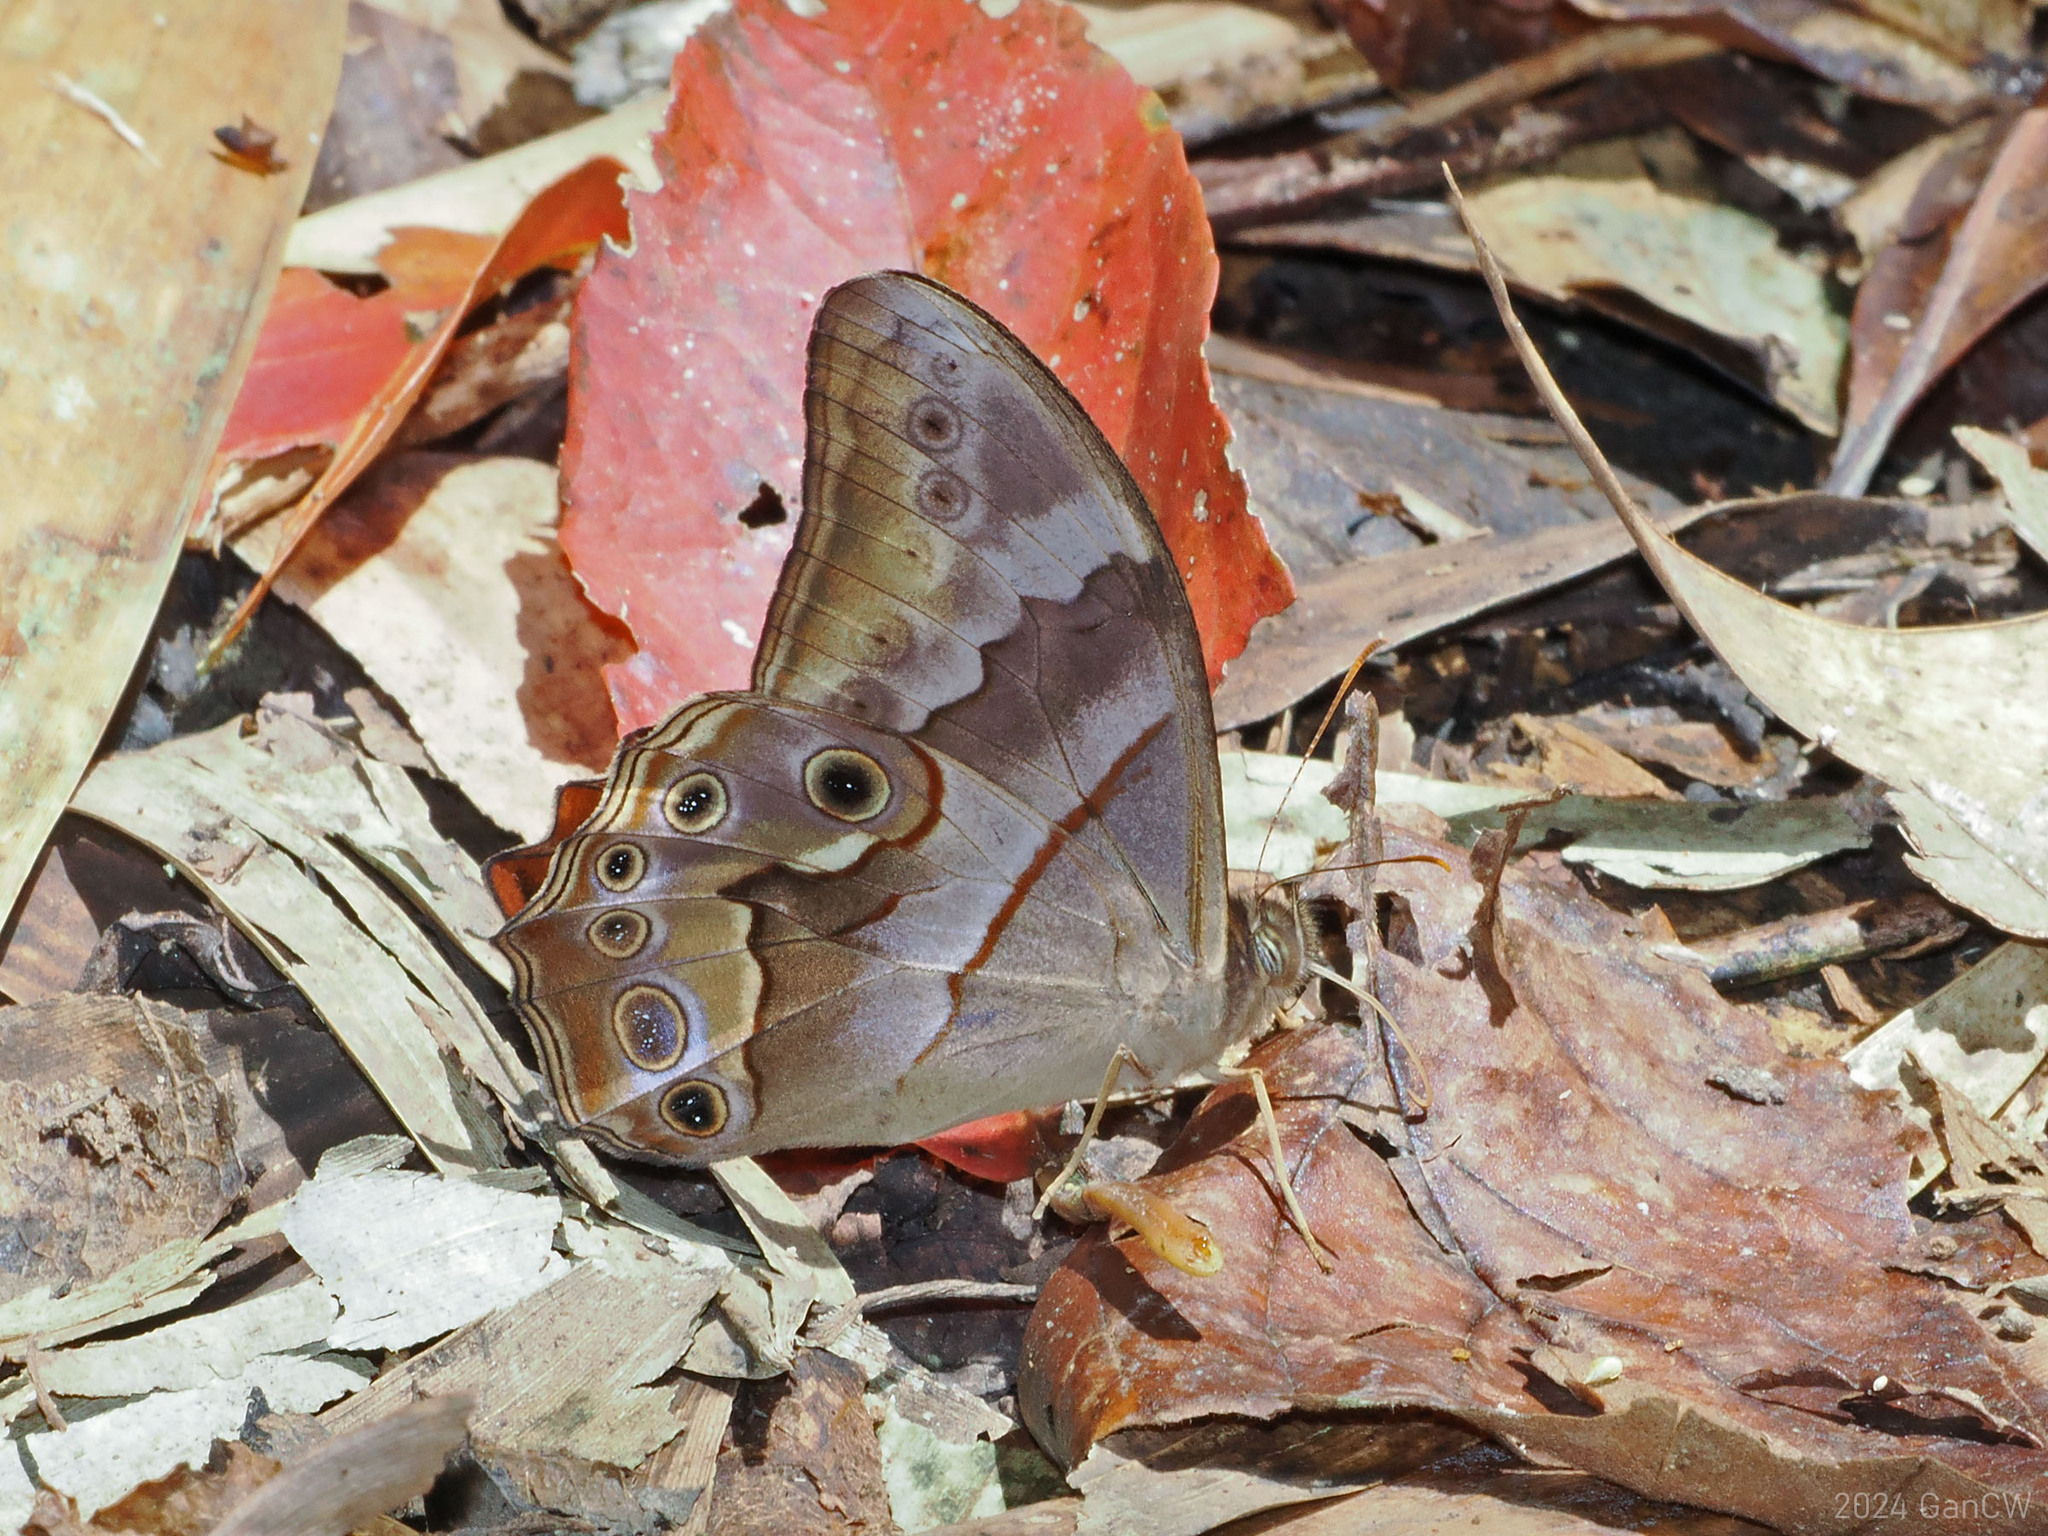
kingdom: Animalia
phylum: Arthropoda
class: Insecta
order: Lepidoptera
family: Nymphalidae
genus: Lethe
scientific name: Lethe chandica
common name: Angled red forester
